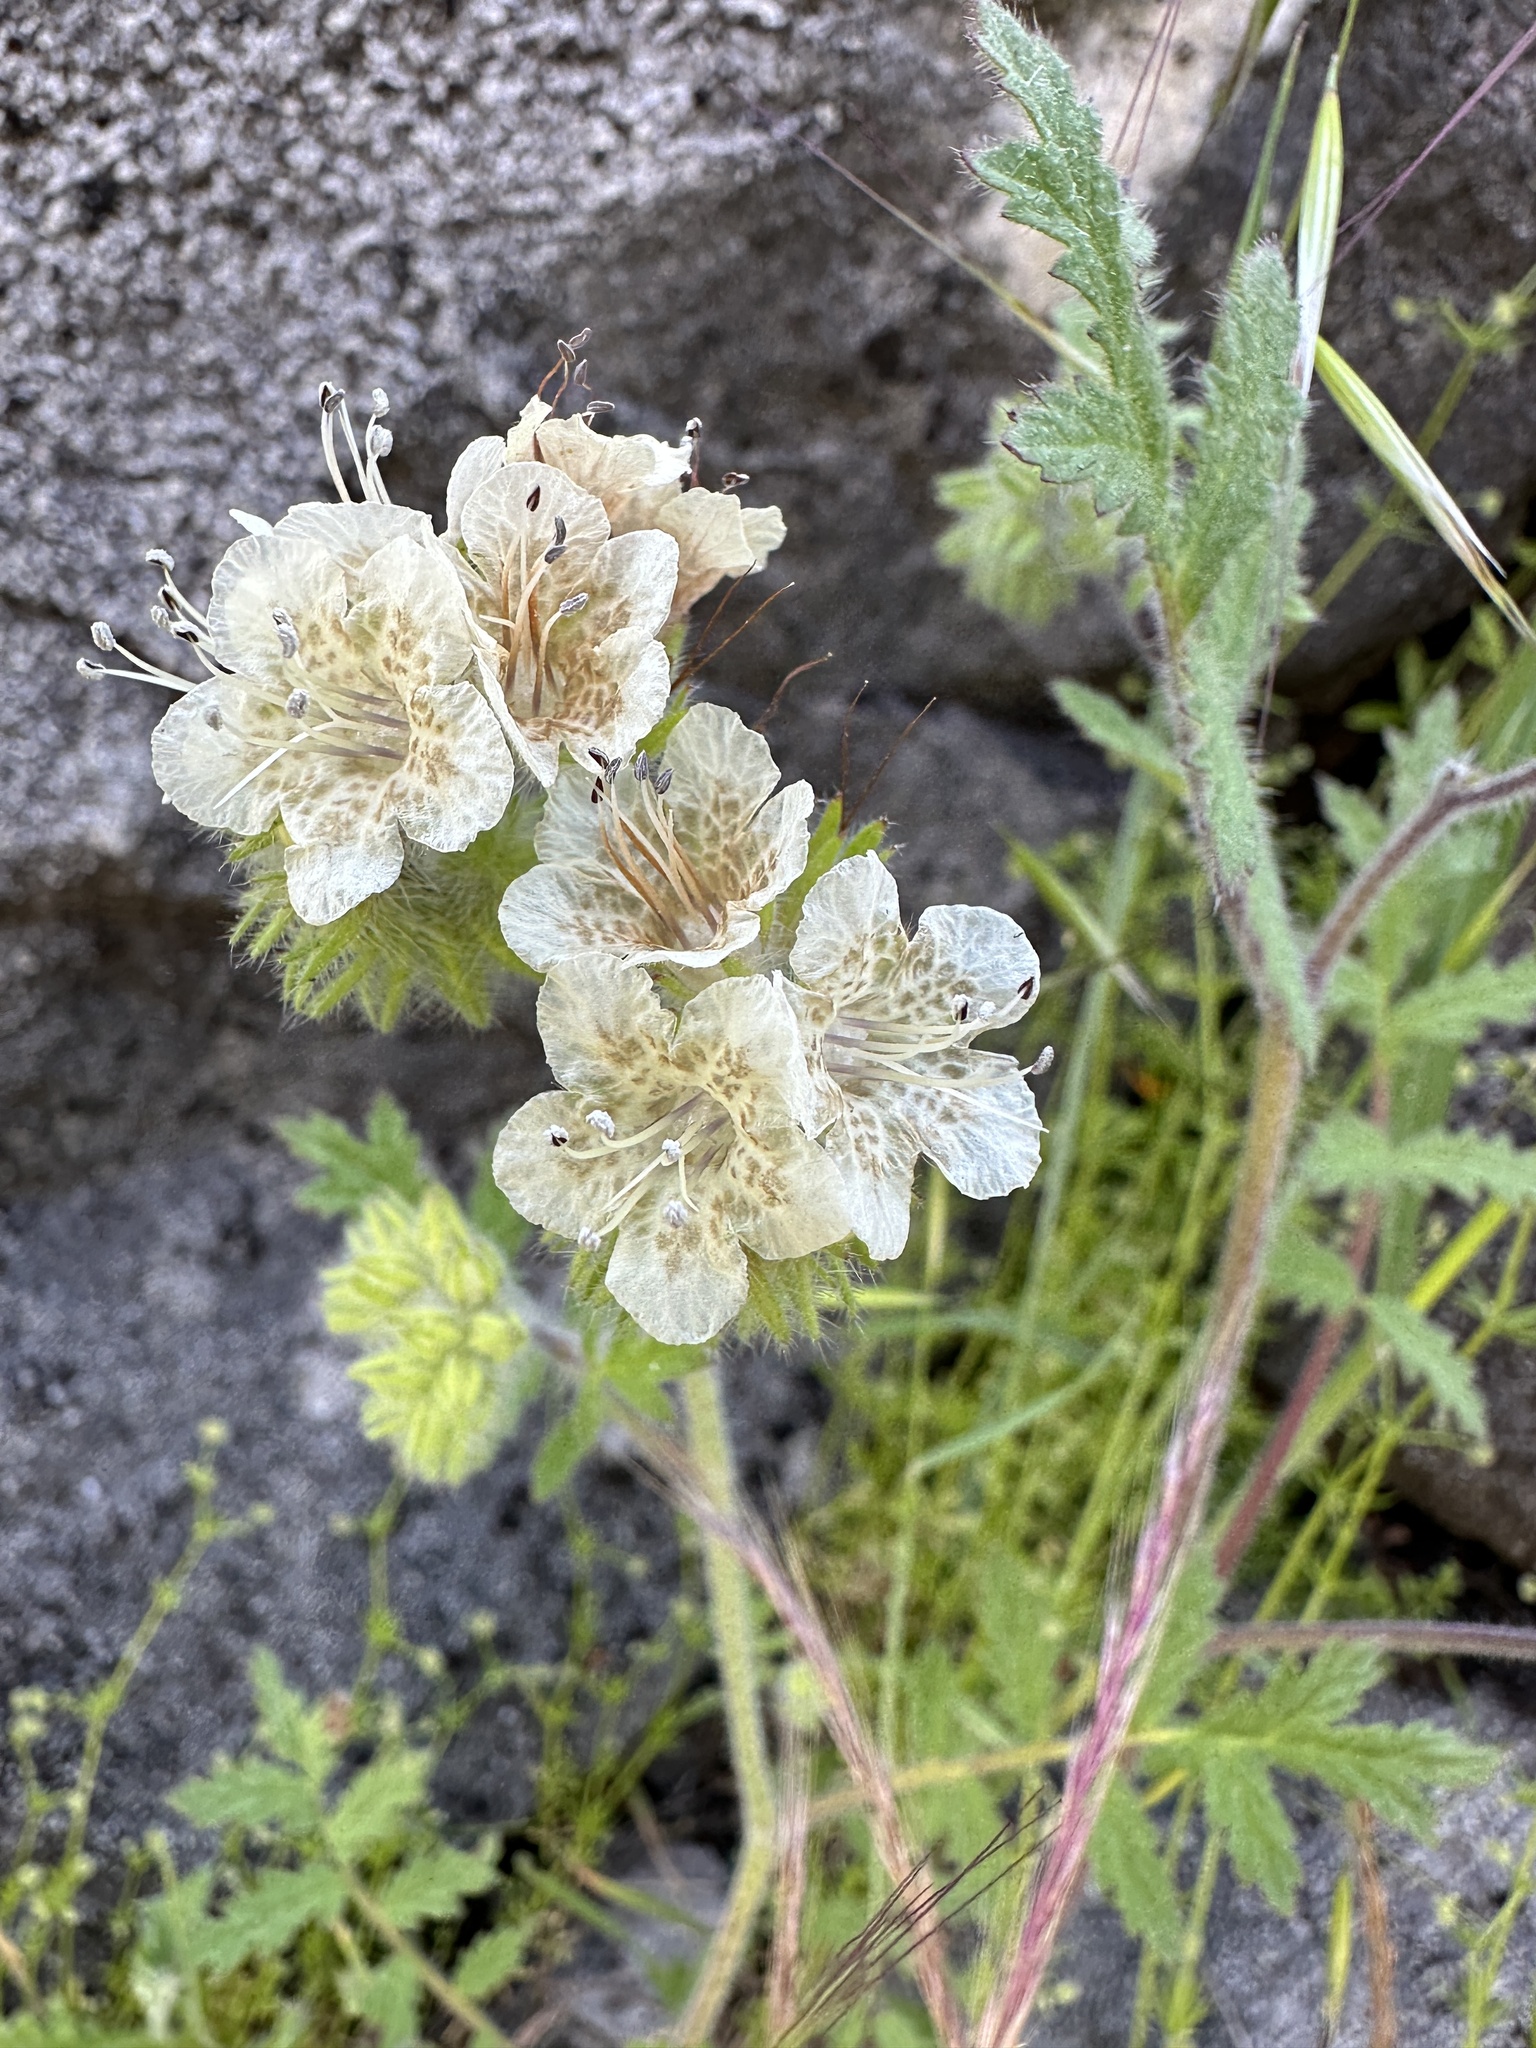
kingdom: Plantae
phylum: Tracheophyta
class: Magnoliopsida
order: Boraginales
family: Hydrophyllaceae
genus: Phacelia
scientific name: Phacelia cicutaria
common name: Caterpillar phacelia
